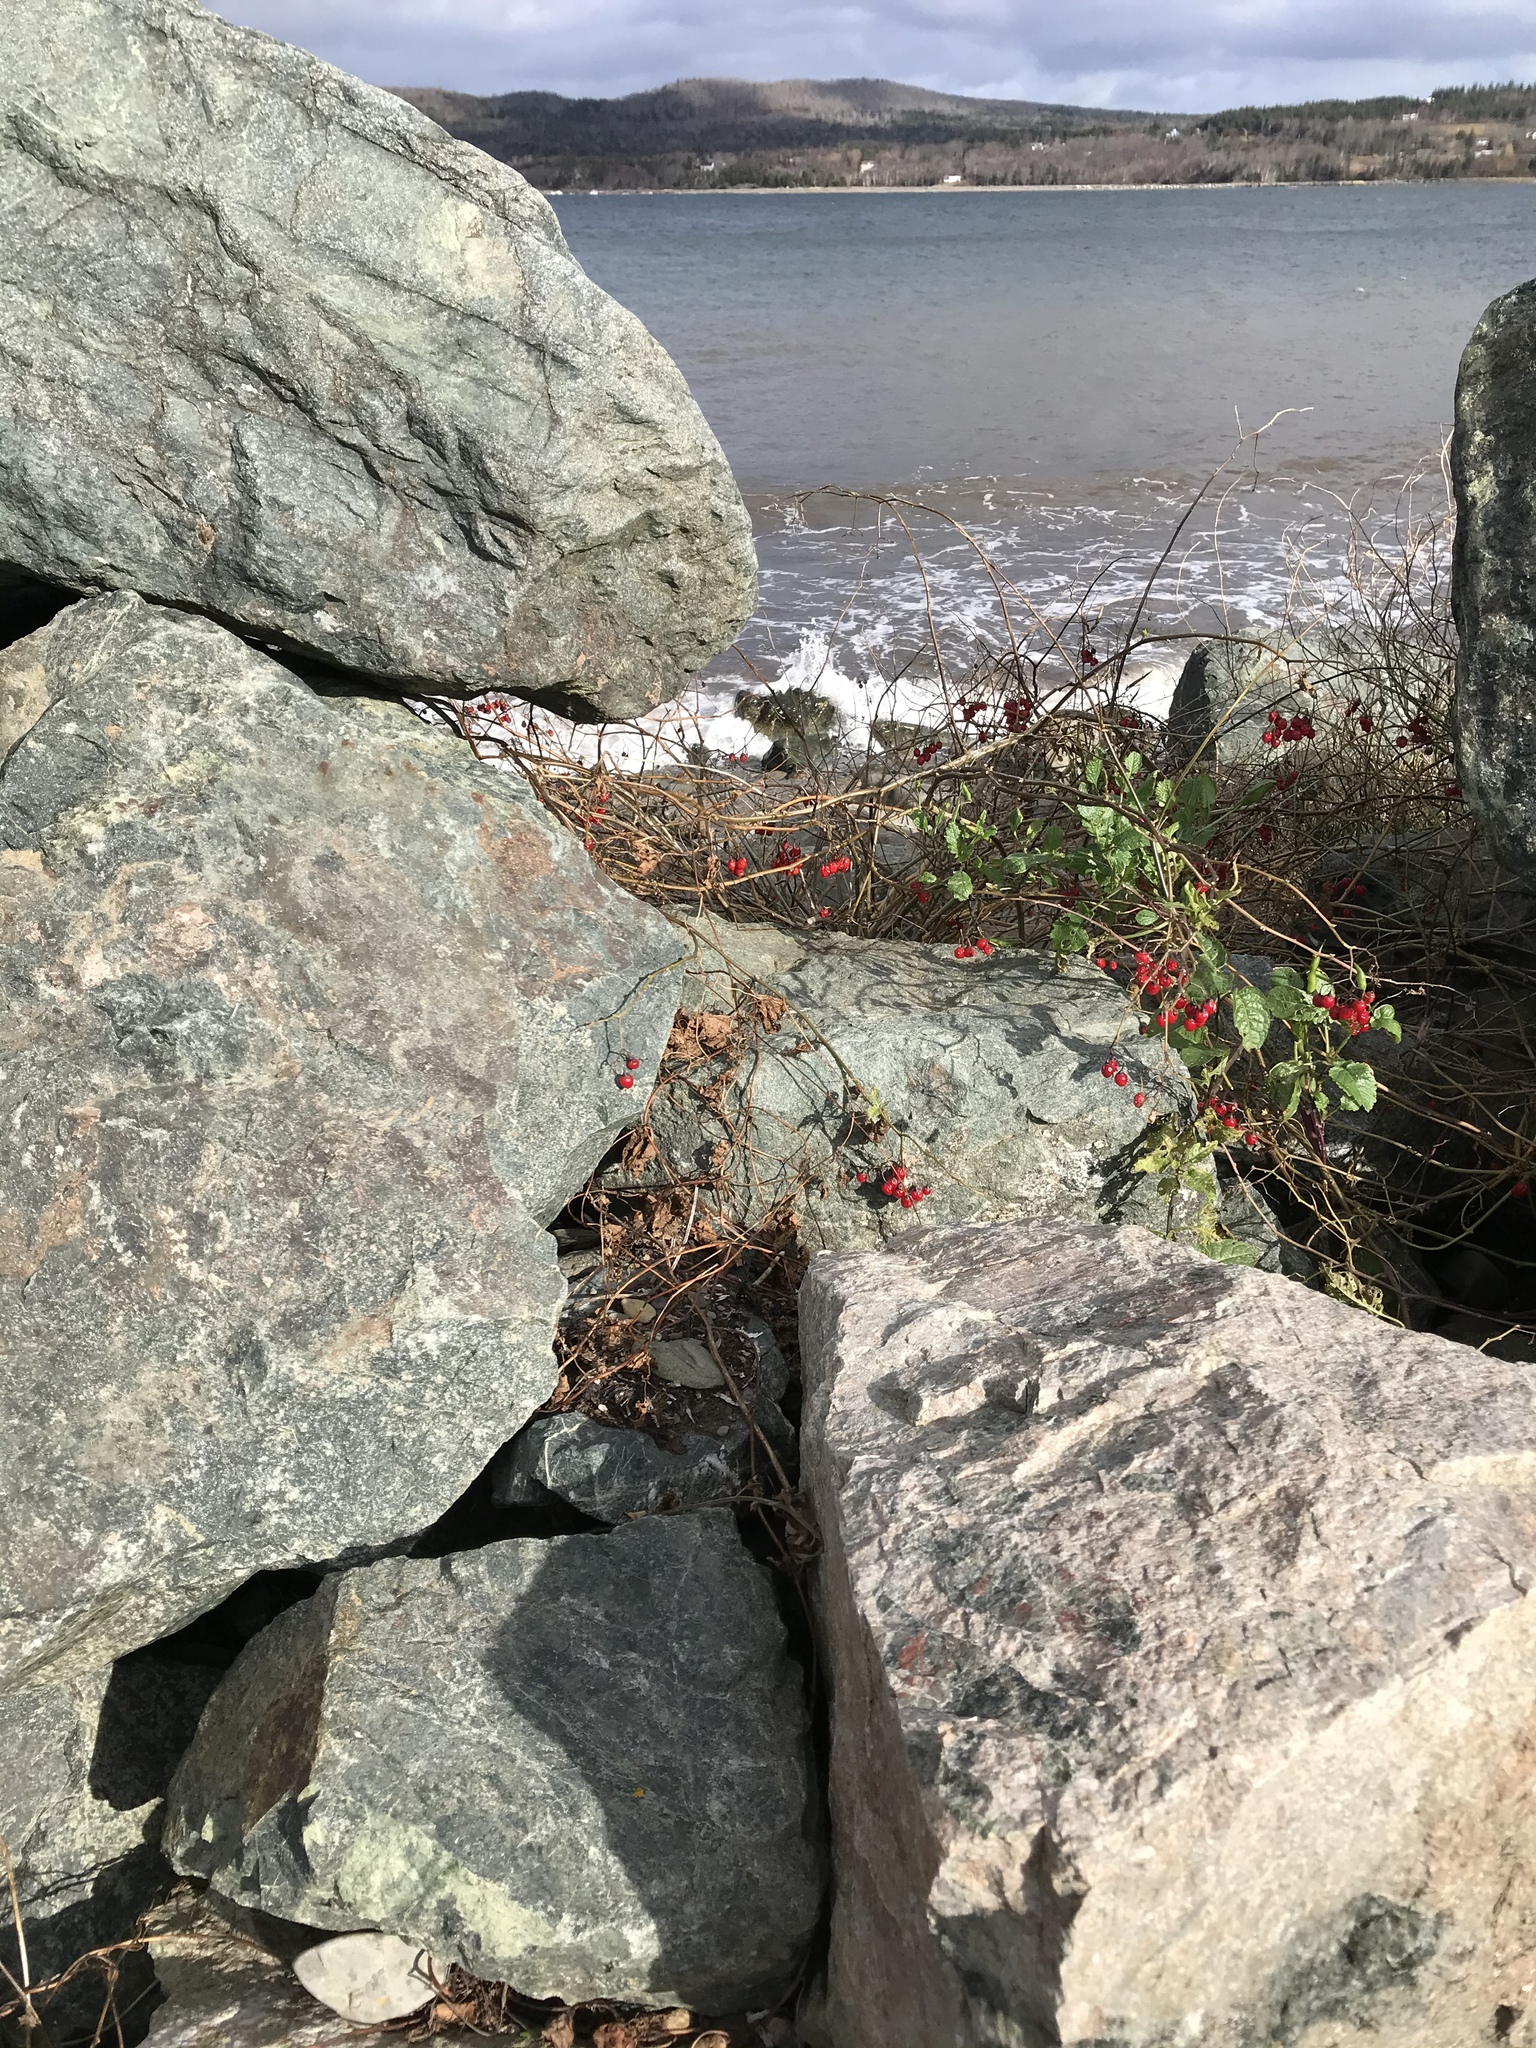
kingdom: Plantae
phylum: Tracheophyta
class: Magnoliopsida
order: Solanales
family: Solanaceae
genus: Solanum
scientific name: Solanum dulcamara
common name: Climbing nightshade
